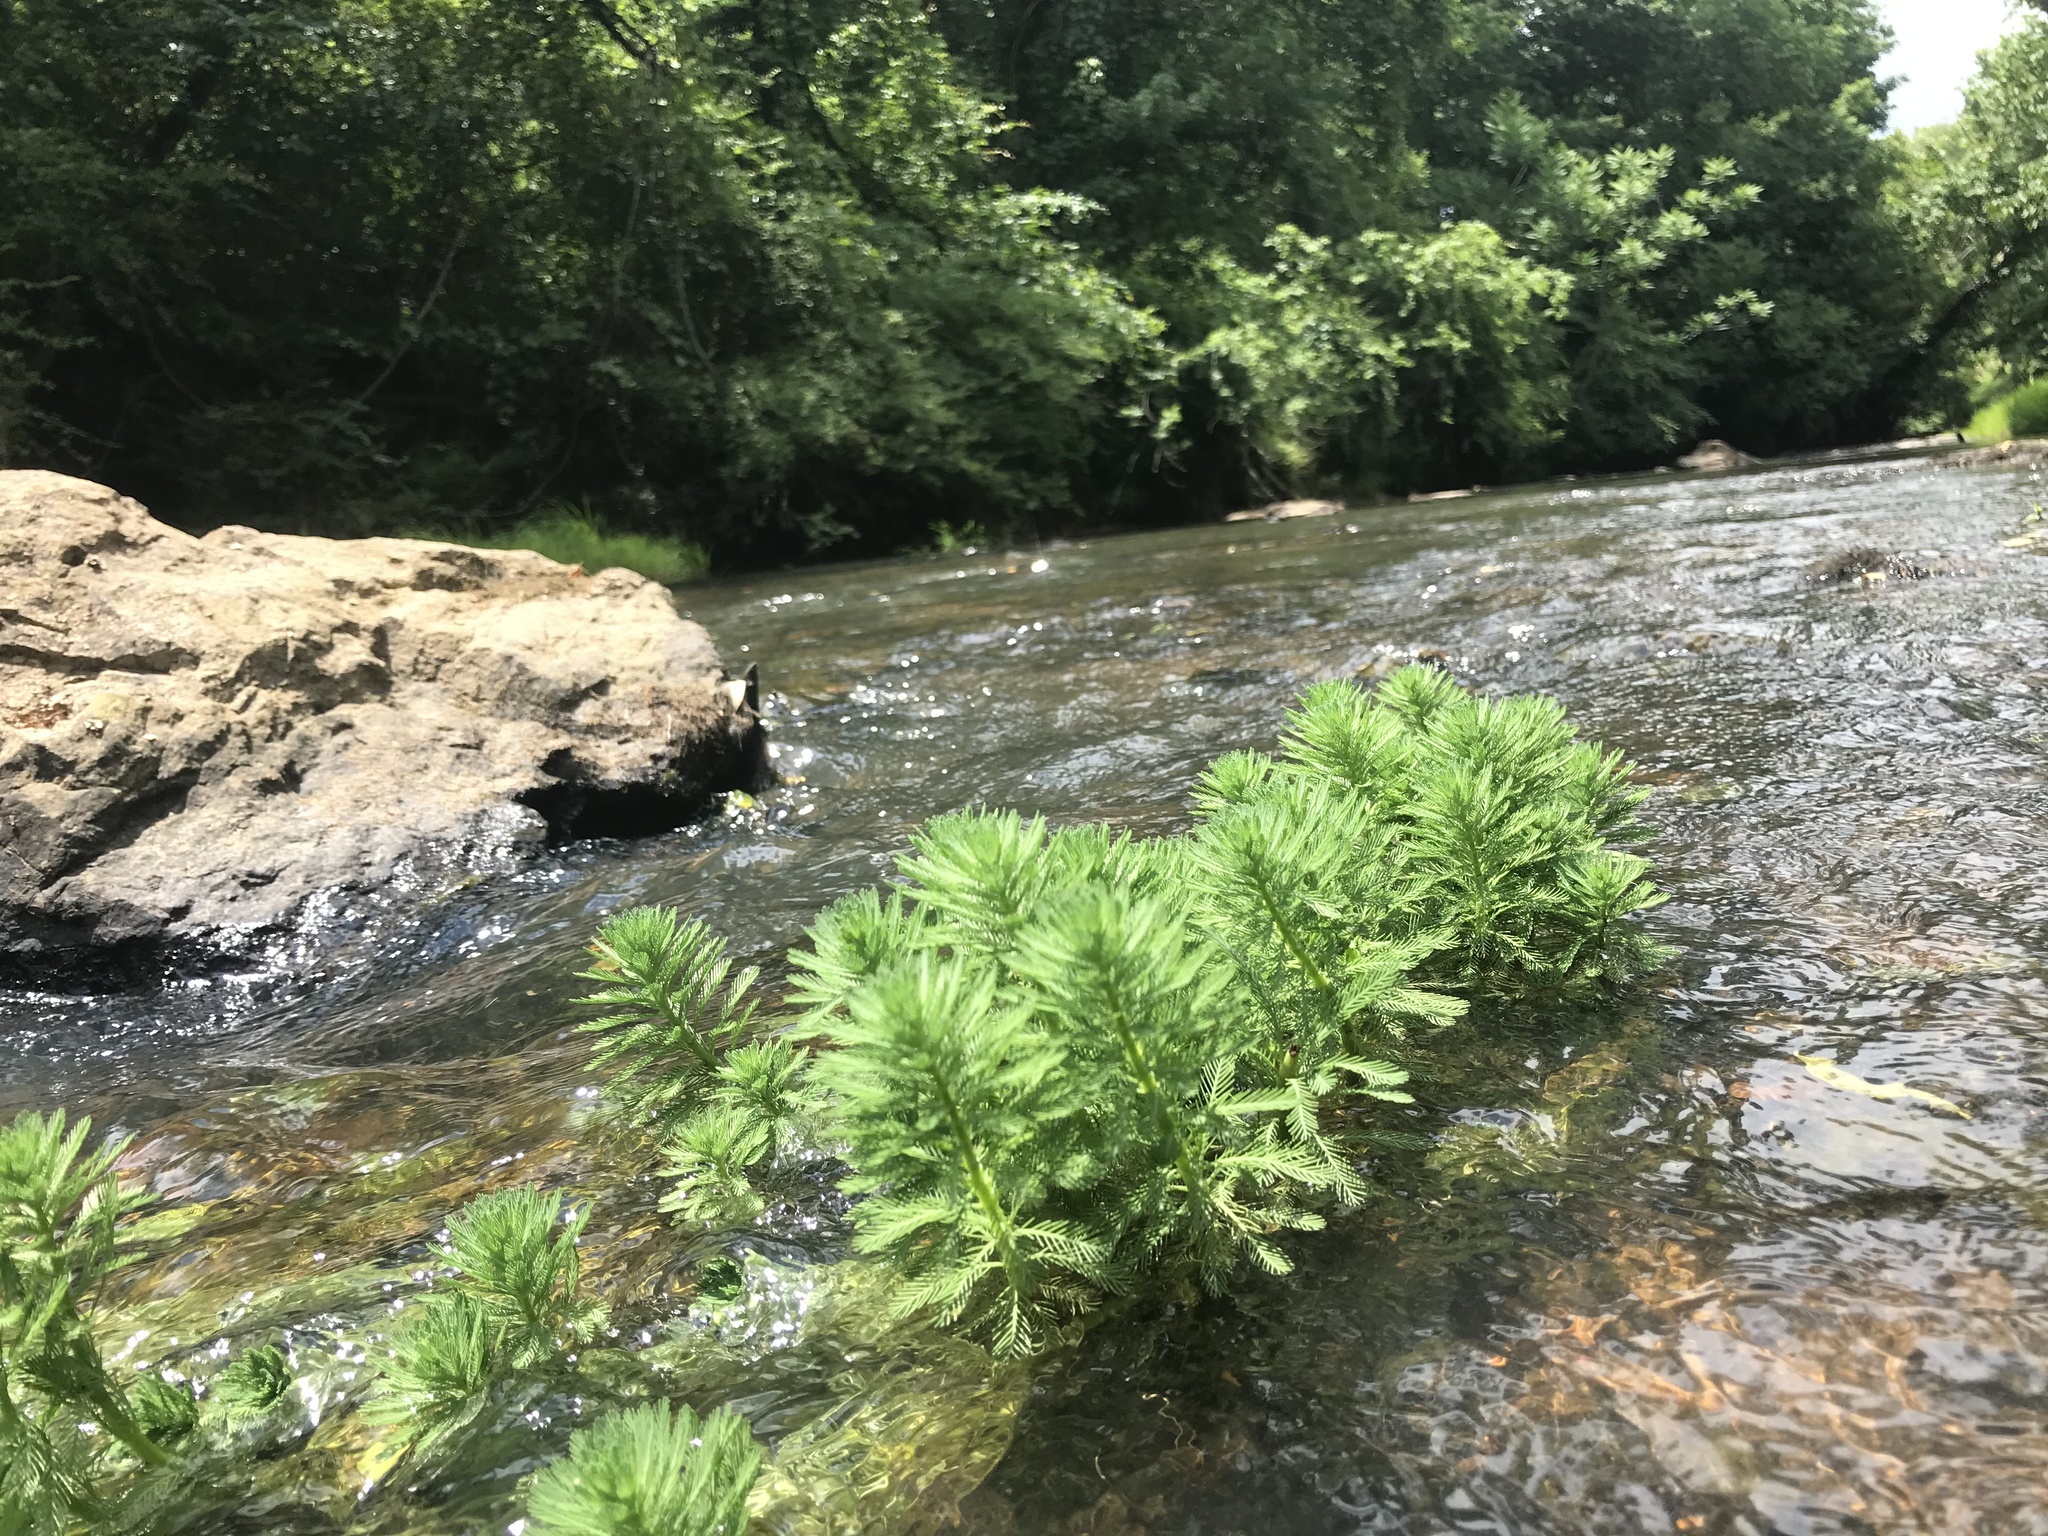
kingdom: Plantae
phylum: Tracheophyta
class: Magnoliopsida
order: Saxifragales
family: Haloragaceae
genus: Myriophyllum
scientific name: Myriophyllum aquaticum
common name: Parrot's feather
